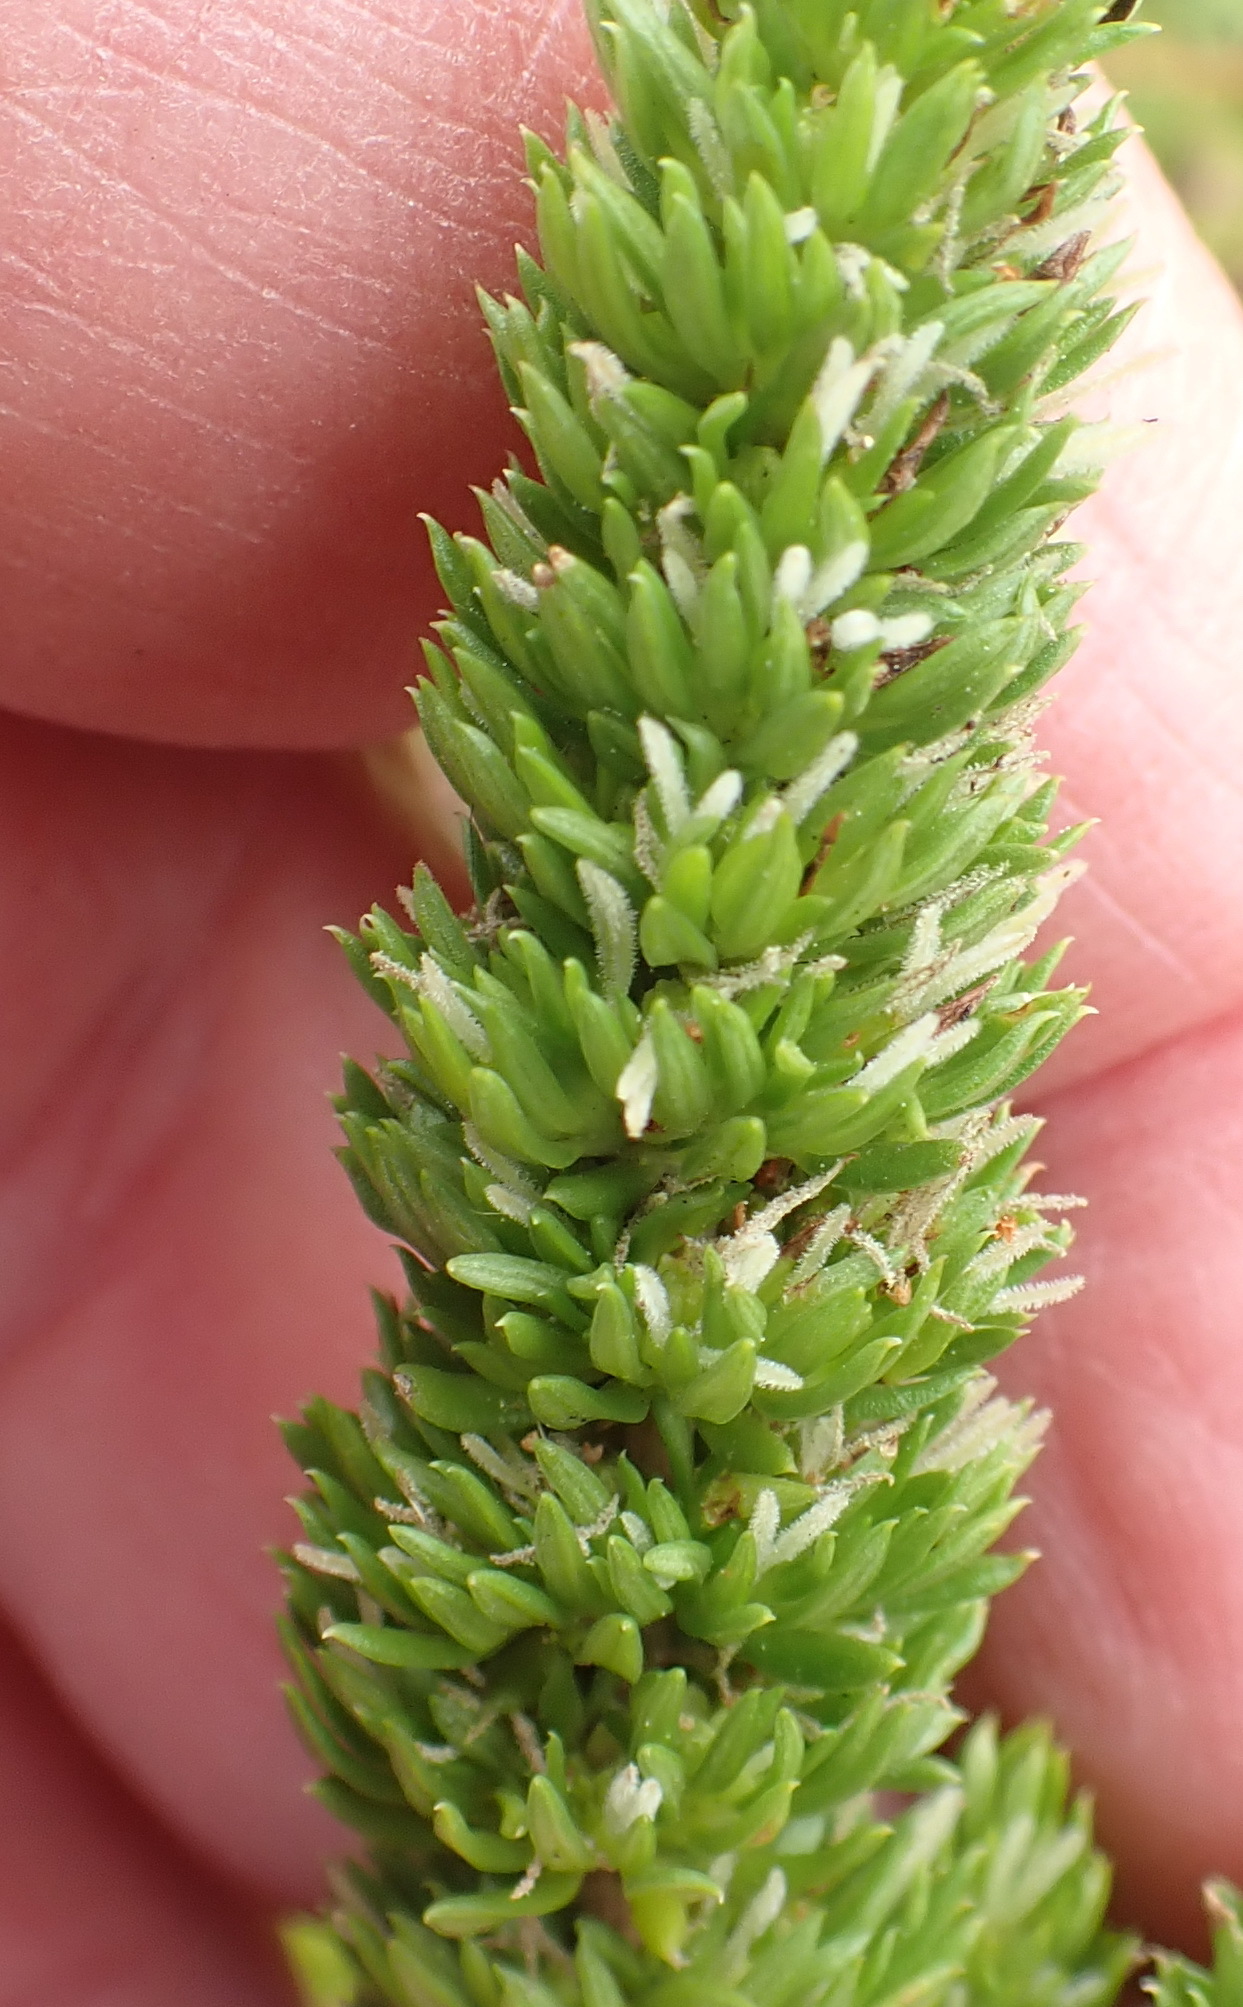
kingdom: Plantae
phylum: Tracheophyta
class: Magnoliopsida
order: Gentianales
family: Rubiaceae
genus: Anthospermum
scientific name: Anthospermum aethiopicum
